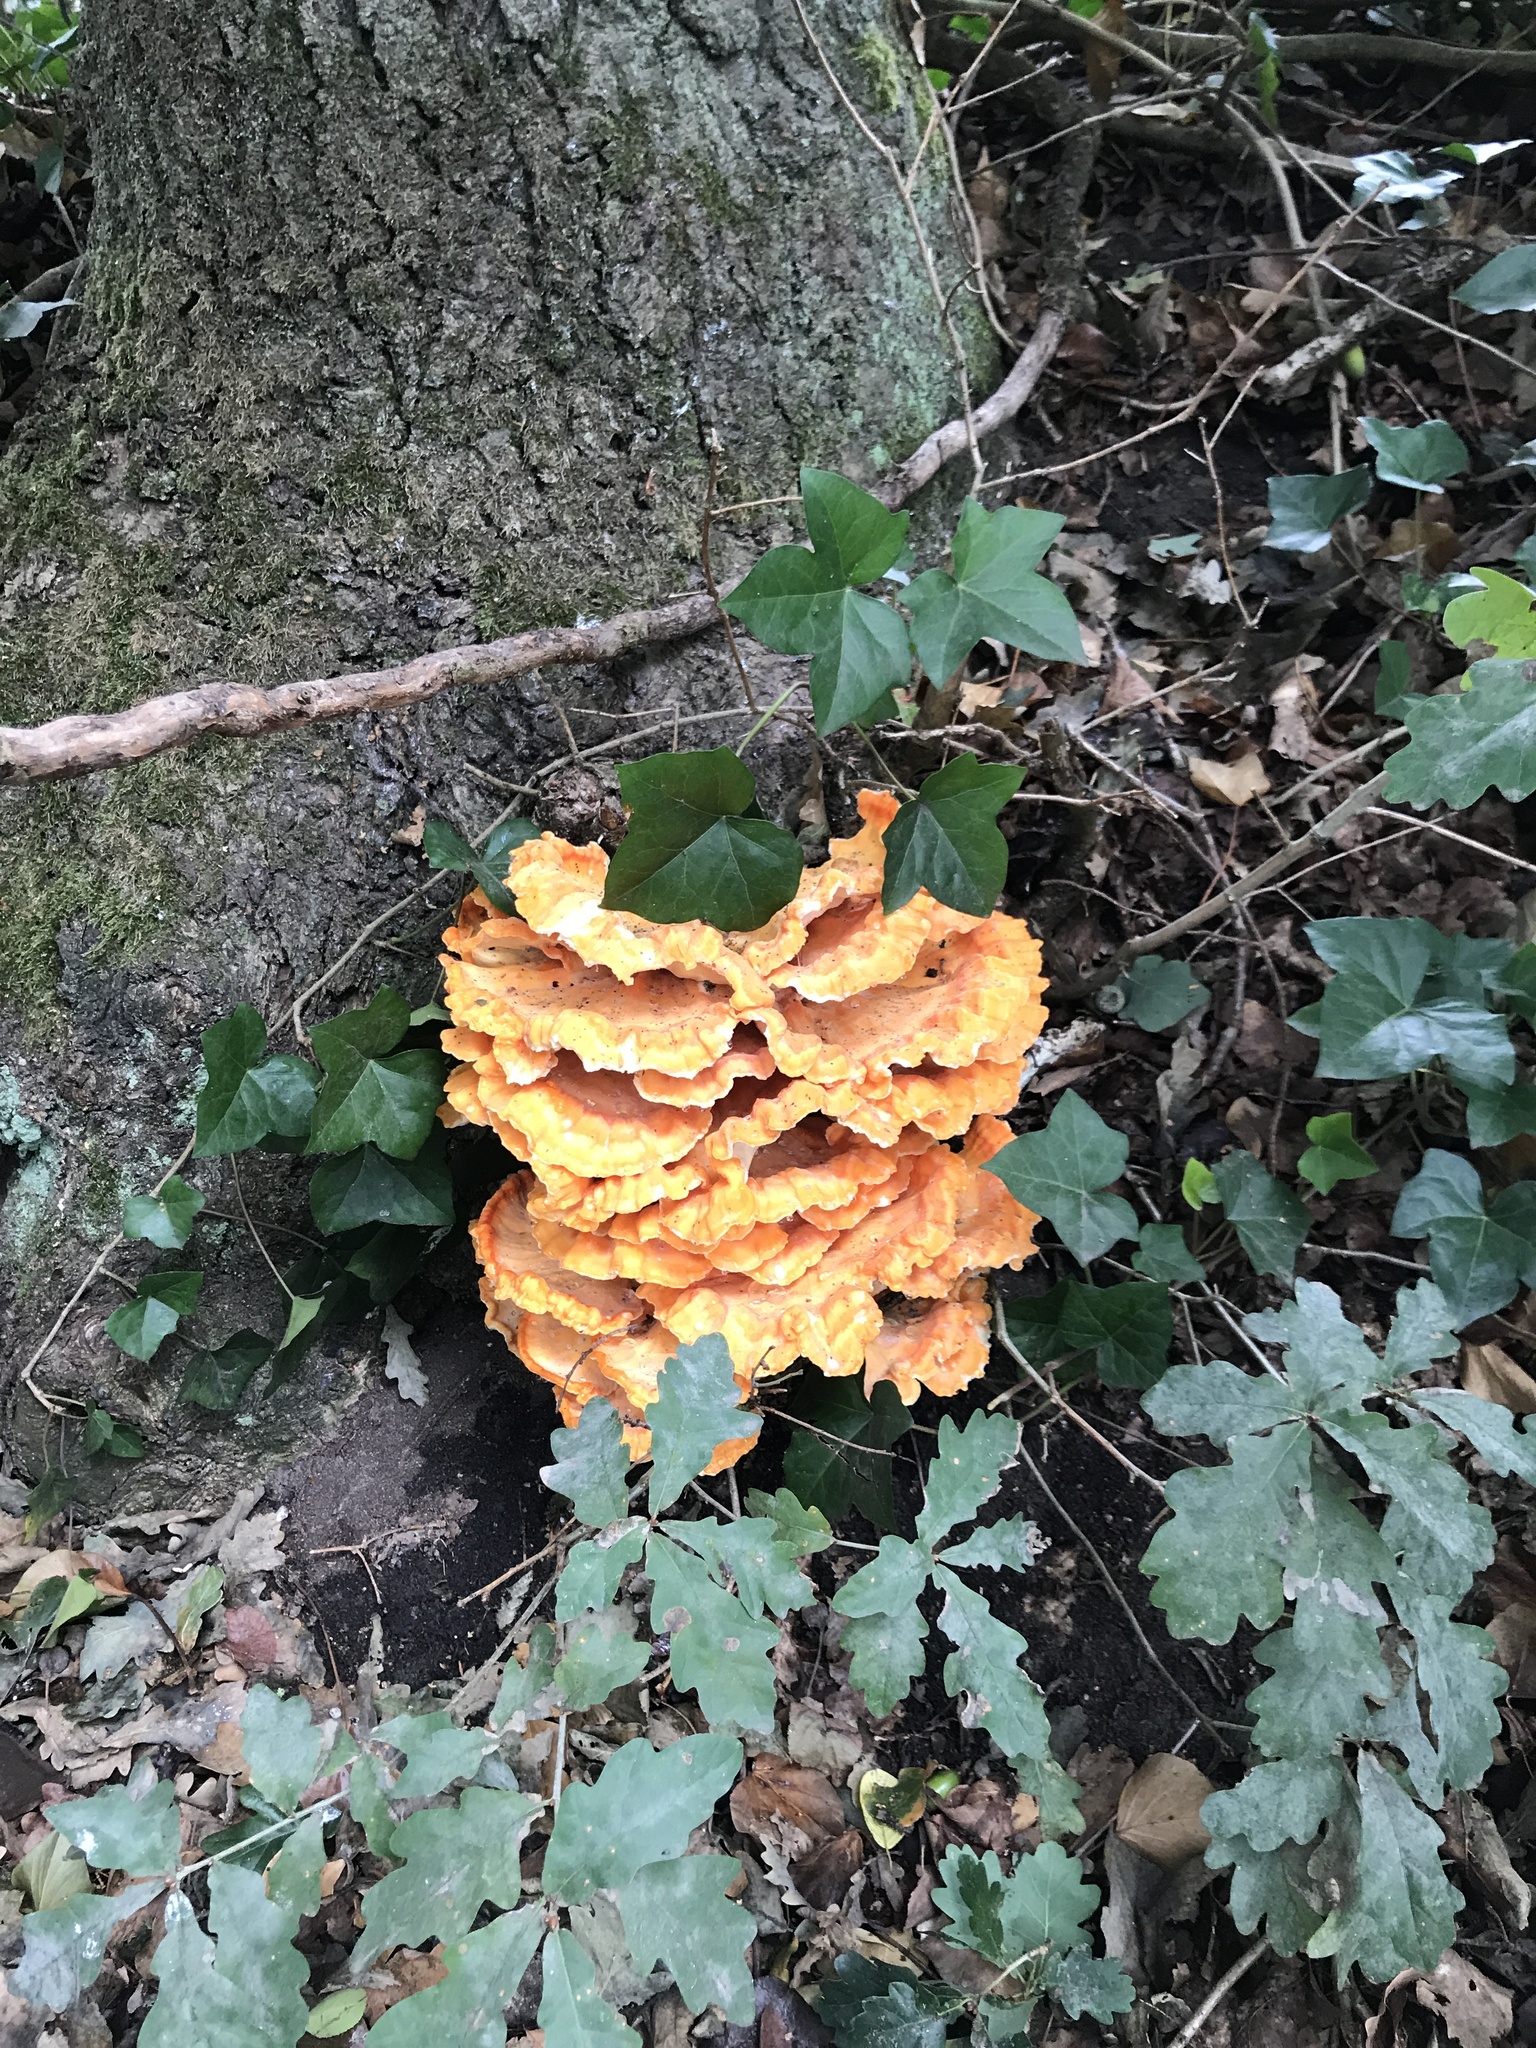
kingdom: Fungi
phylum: Basidiomycota
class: Agaricomycetes
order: Polyporales
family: Laetiporaceae
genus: Laetiporus
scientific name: Laetiporus sulphureus
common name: Chicken of the woods
